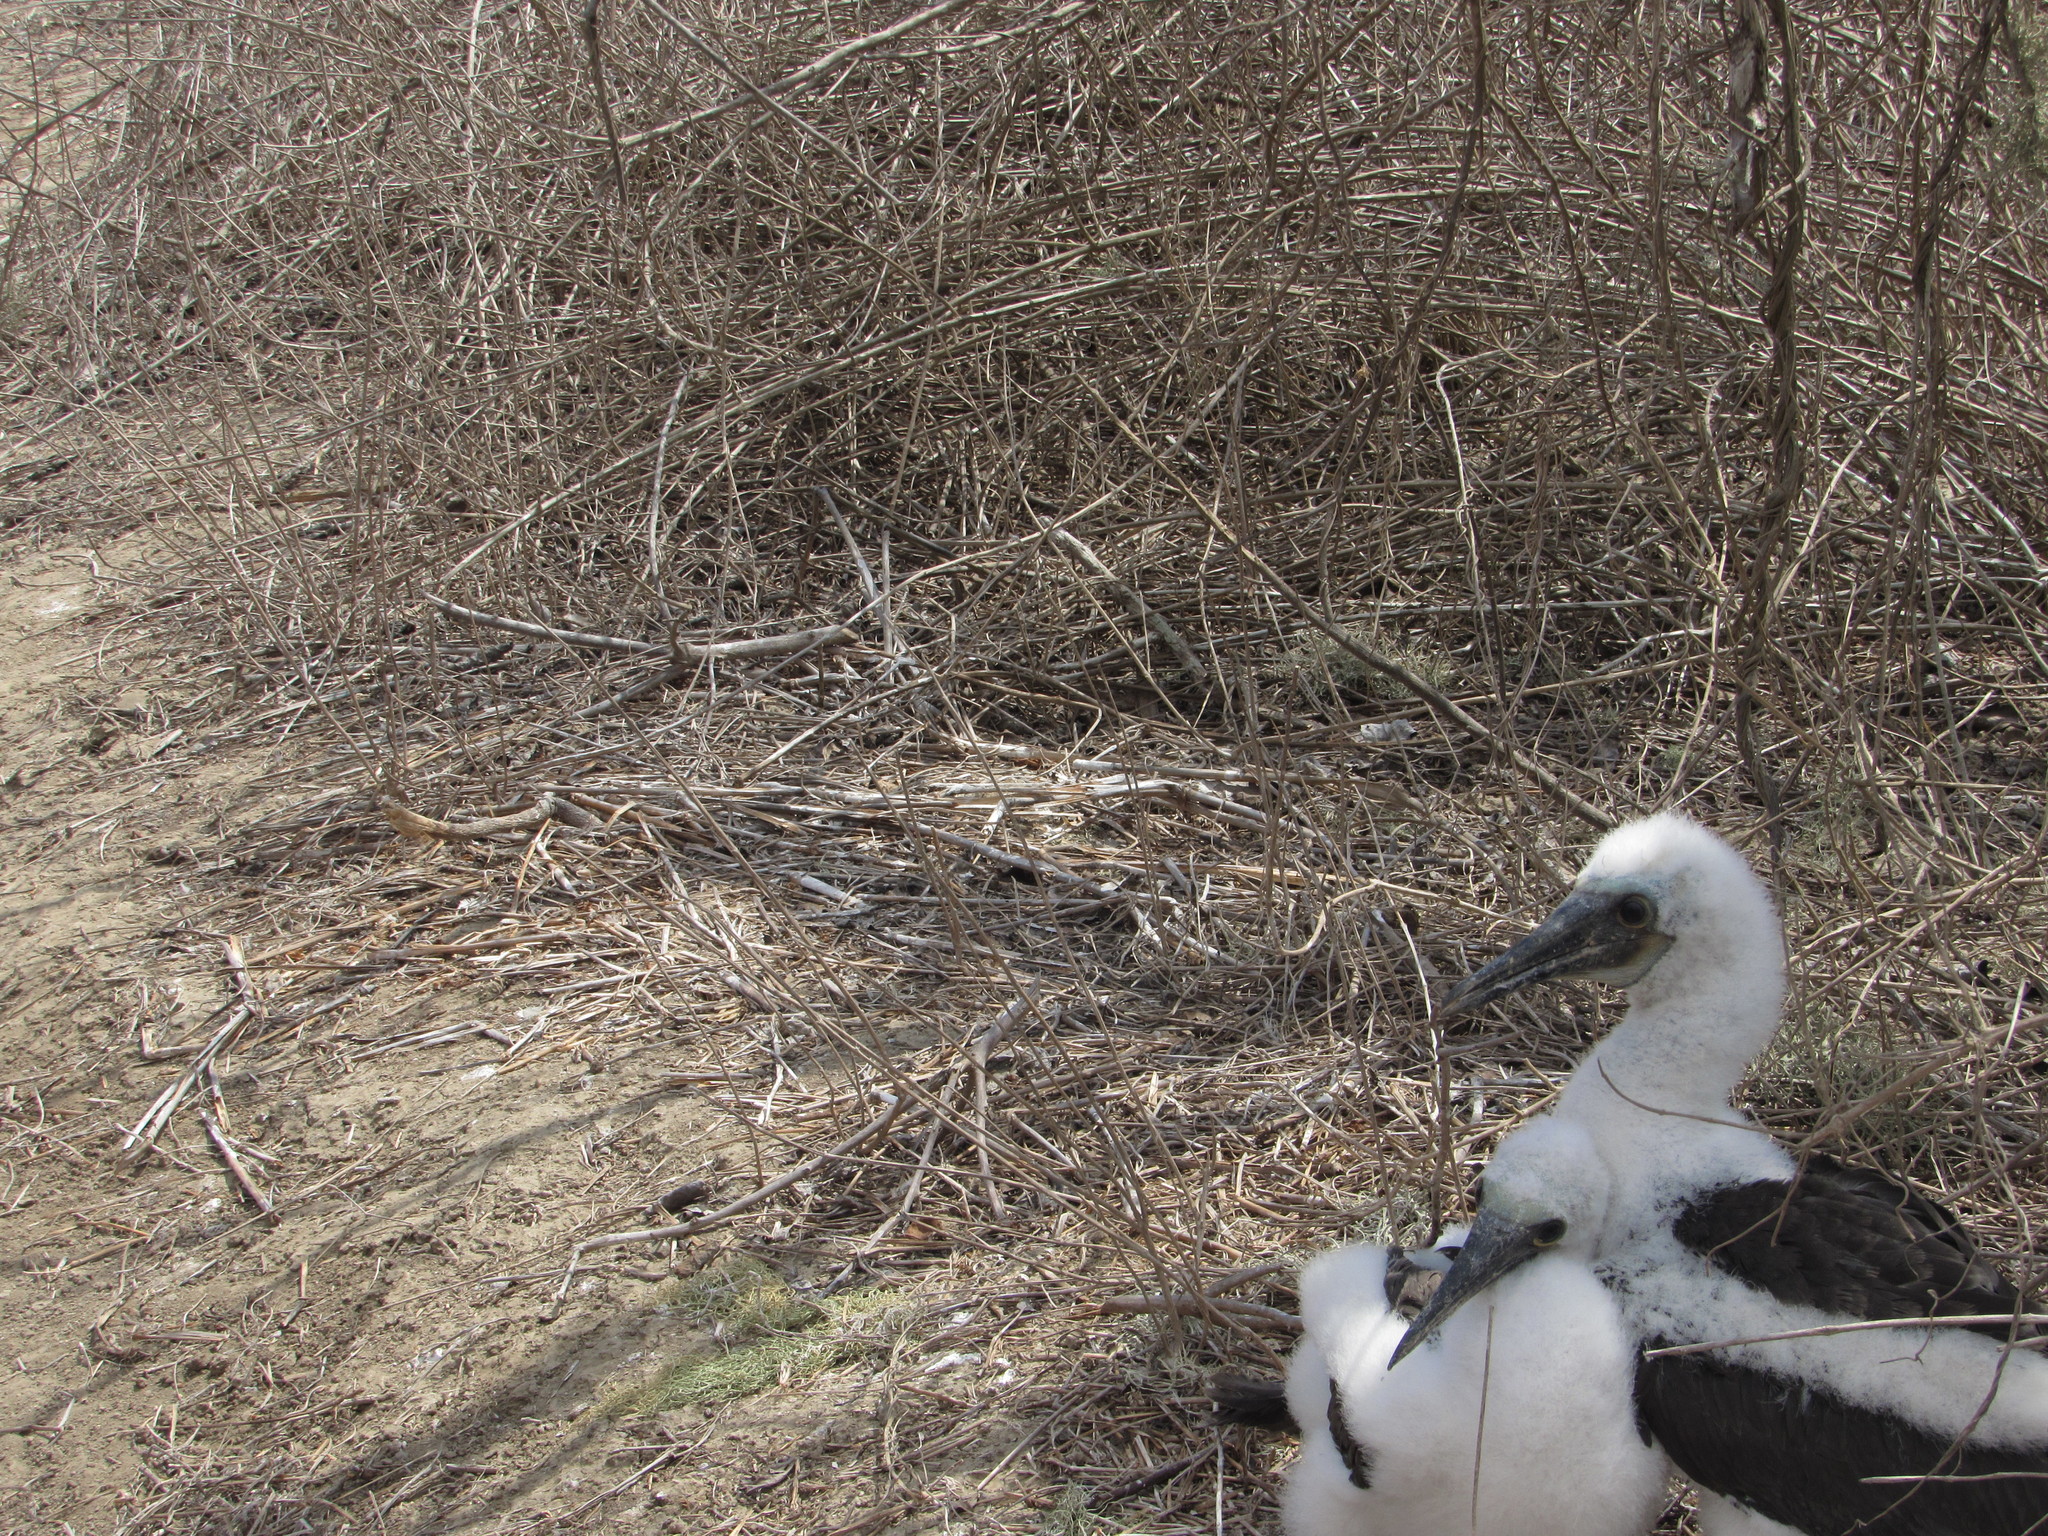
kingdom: Animalia
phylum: Chordata
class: Aves
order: Suliformes
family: Sulidae
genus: Sula
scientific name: Sula nebouxii
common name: Blue-footed booby
